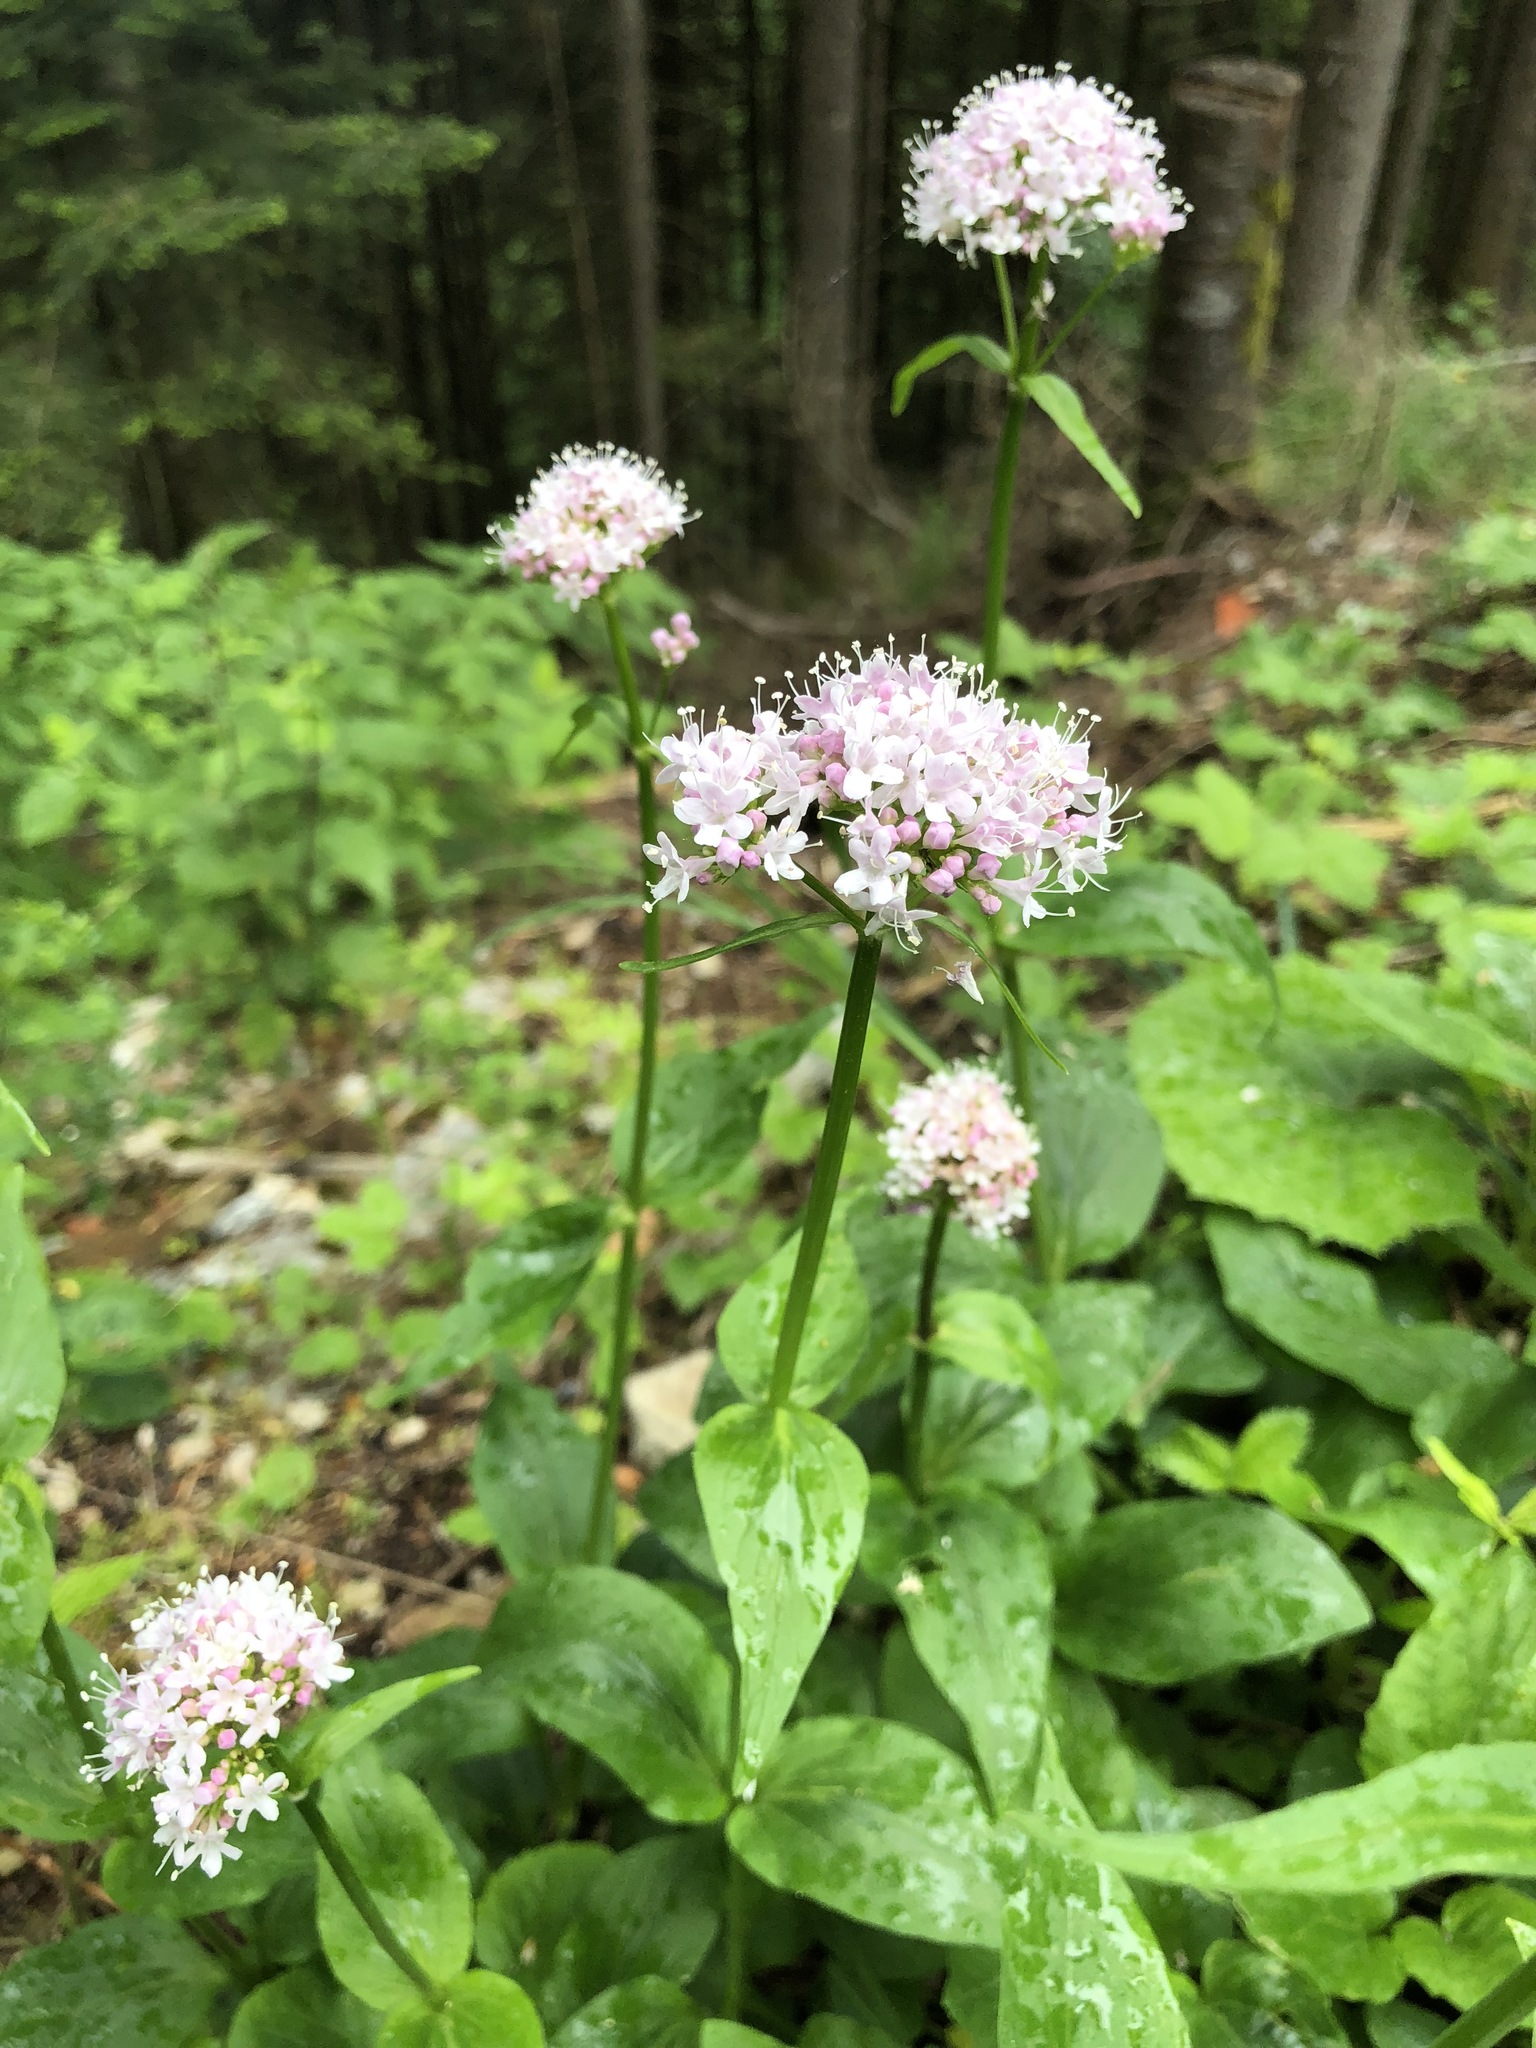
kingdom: Plantae
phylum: Tracheophyta
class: Magnoliopsida
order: Dipsacales
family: Caprifoliaceae
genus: Valeriana
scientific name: Valeriana montana
